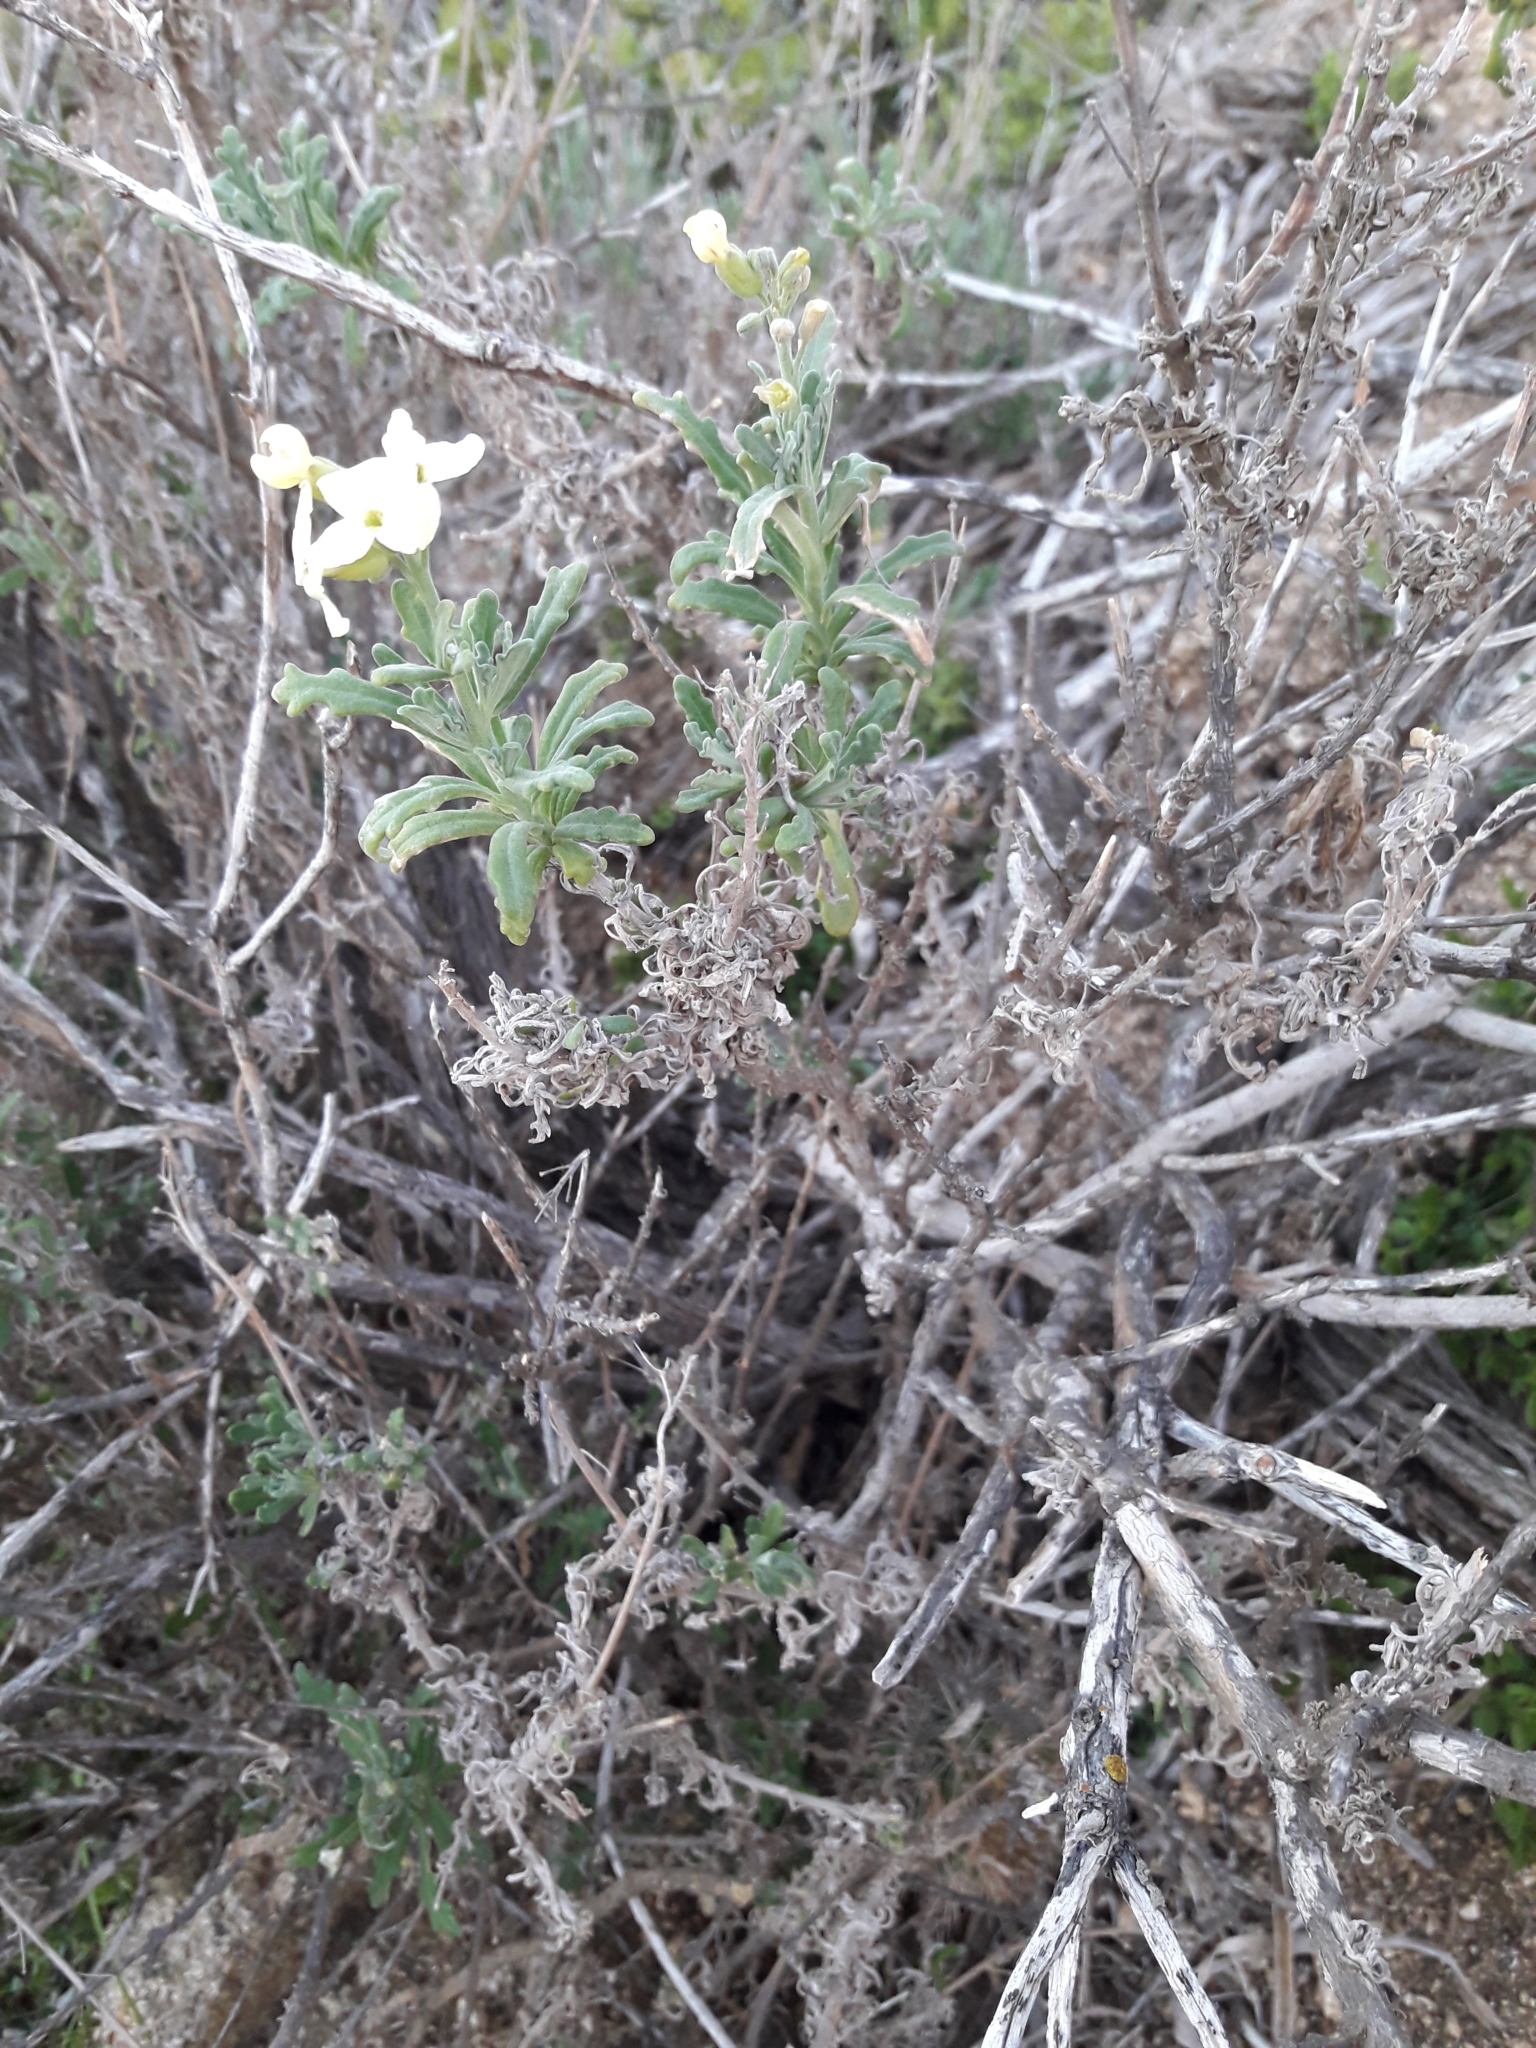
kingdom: Plantae
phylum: Tracheophyta
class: Magnoliopsida
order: Brassicales
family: Brassicaceae
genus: Mathewsia
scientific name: Mathewsia foliosa
